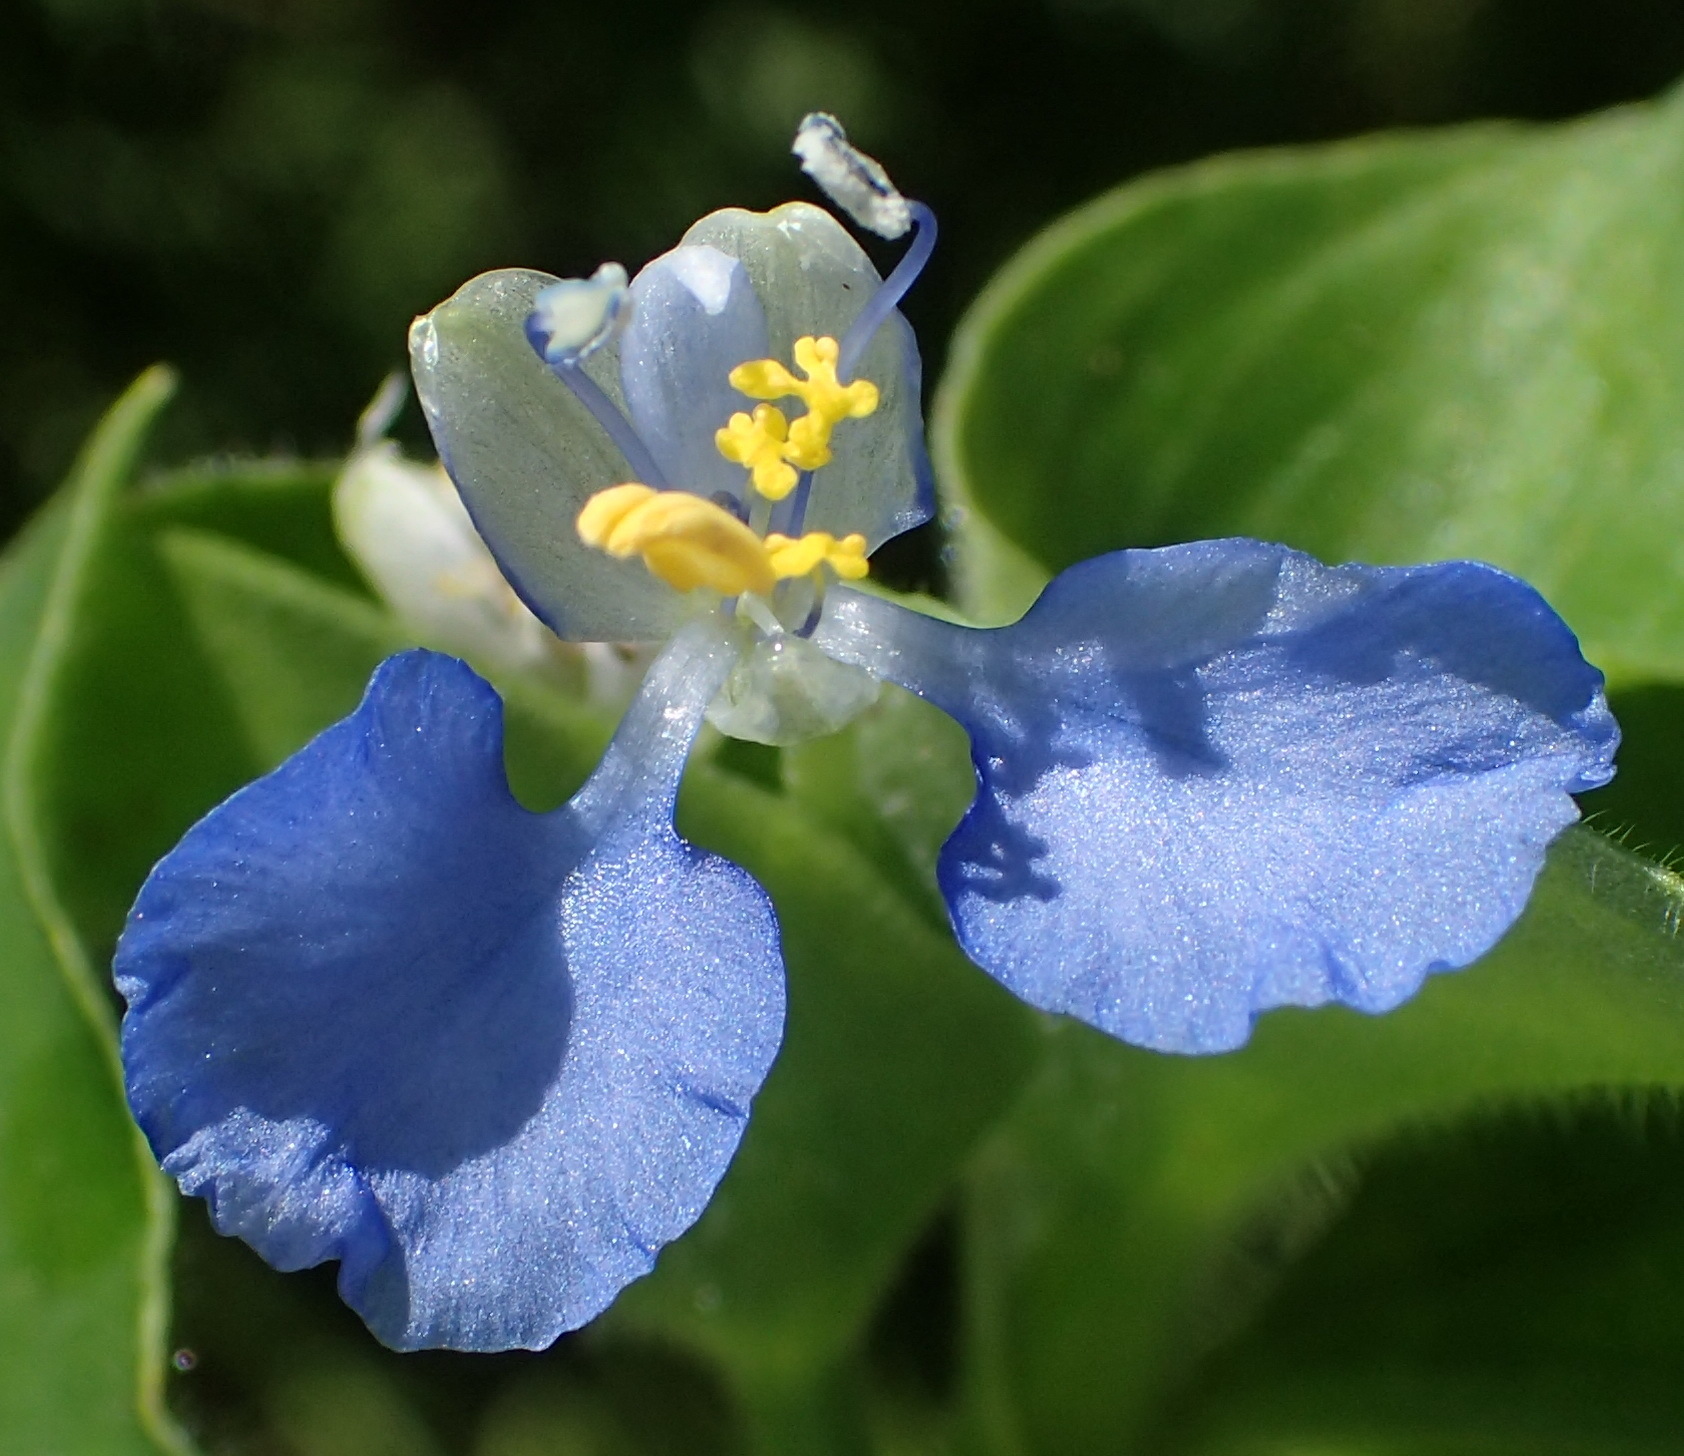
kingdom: Plantae
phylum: Tracheophyta
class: Liliopsida
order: Commelinales
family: Commelinaceae
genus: Commelina
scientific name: Commelina benghalensis
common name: Jio
